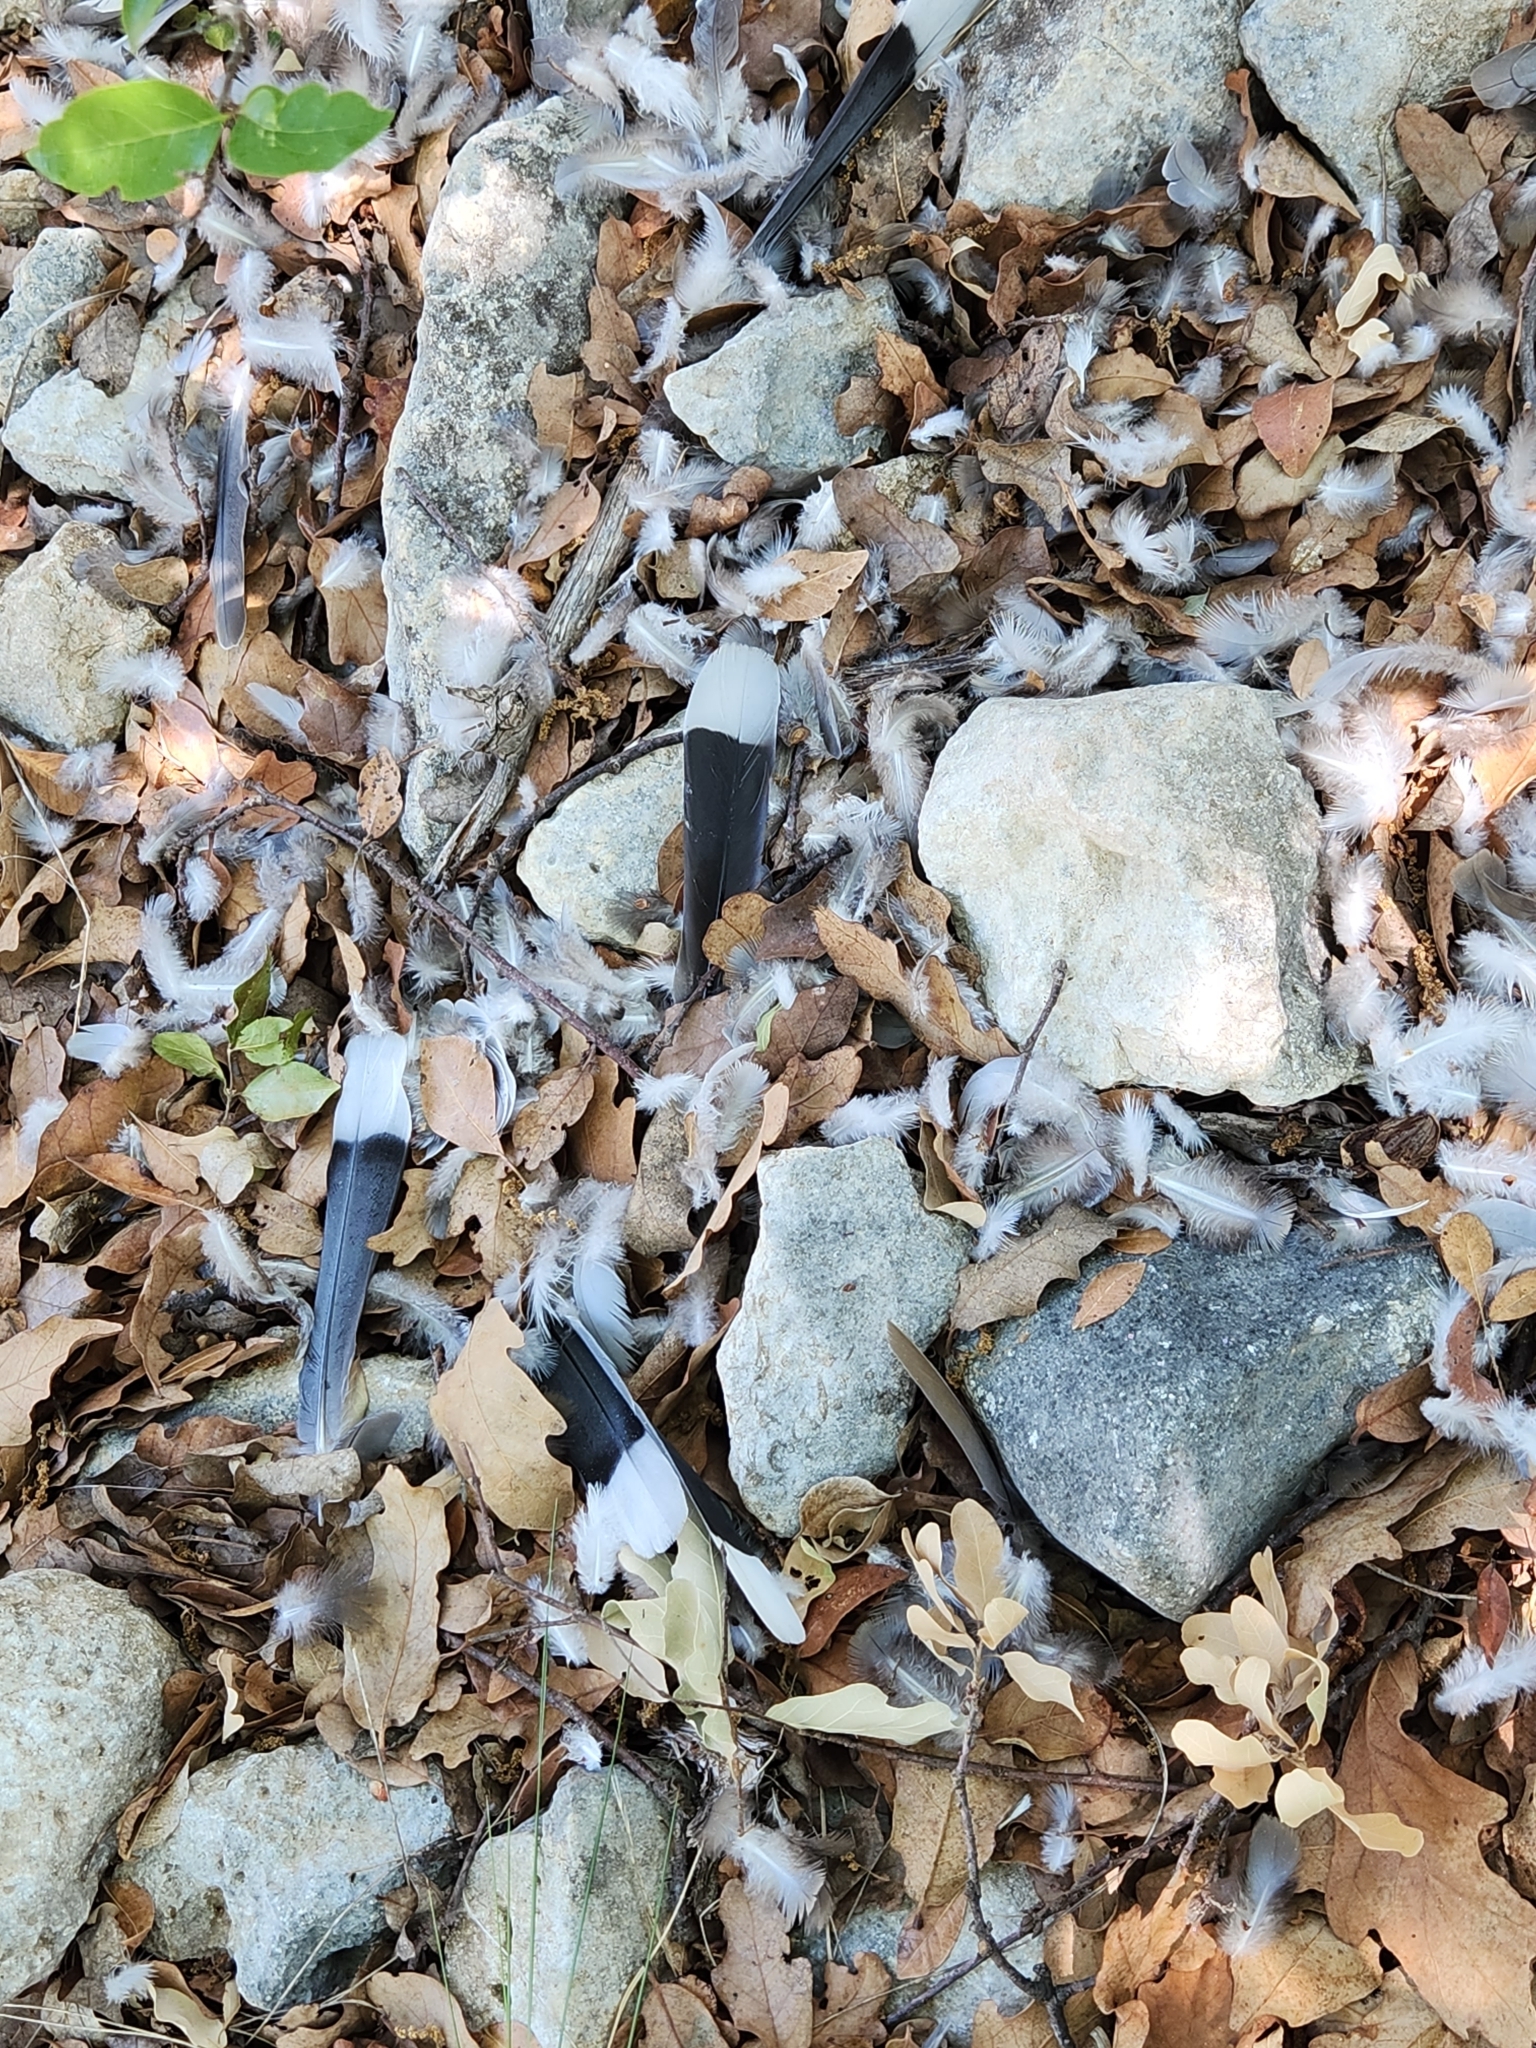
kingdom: Animalia
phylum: Chordata
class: Aves
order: Columbiformes
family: Columbidae
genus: Zenaida
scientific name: Zenaida asiatica
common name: White-winged dove
